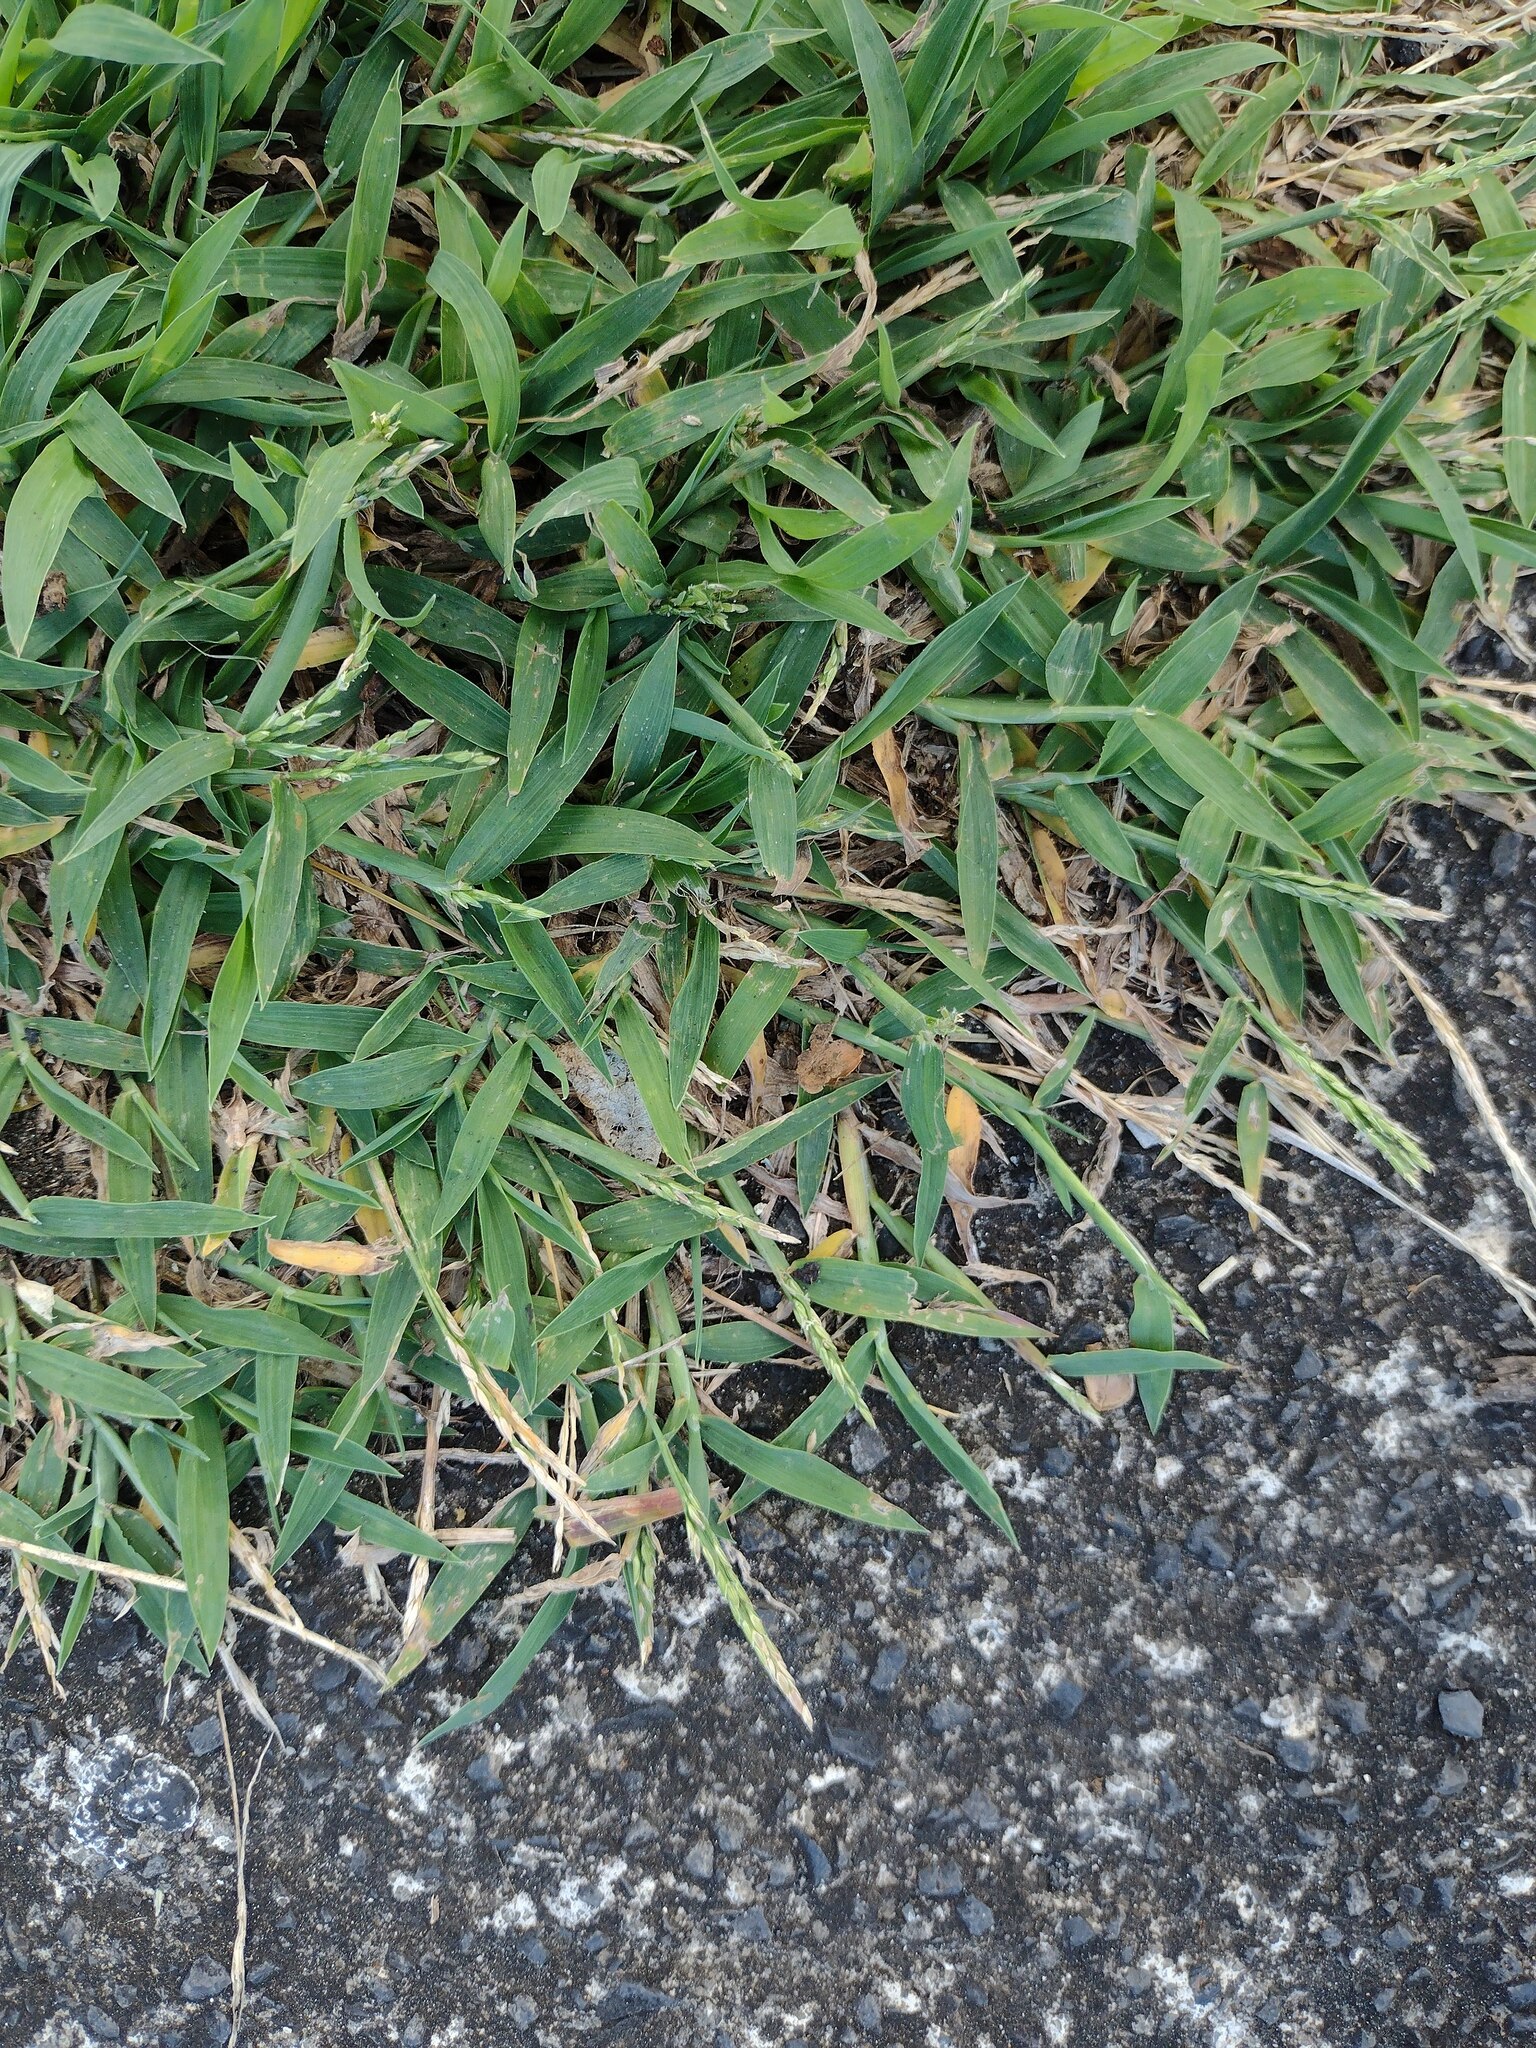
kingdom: Plantae
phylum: Tracheophyta
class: Liliopsida
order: Poales
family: Poaceae
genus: Digitaria
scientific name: Digitaria ciliaris
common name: Tropical finger-grass
